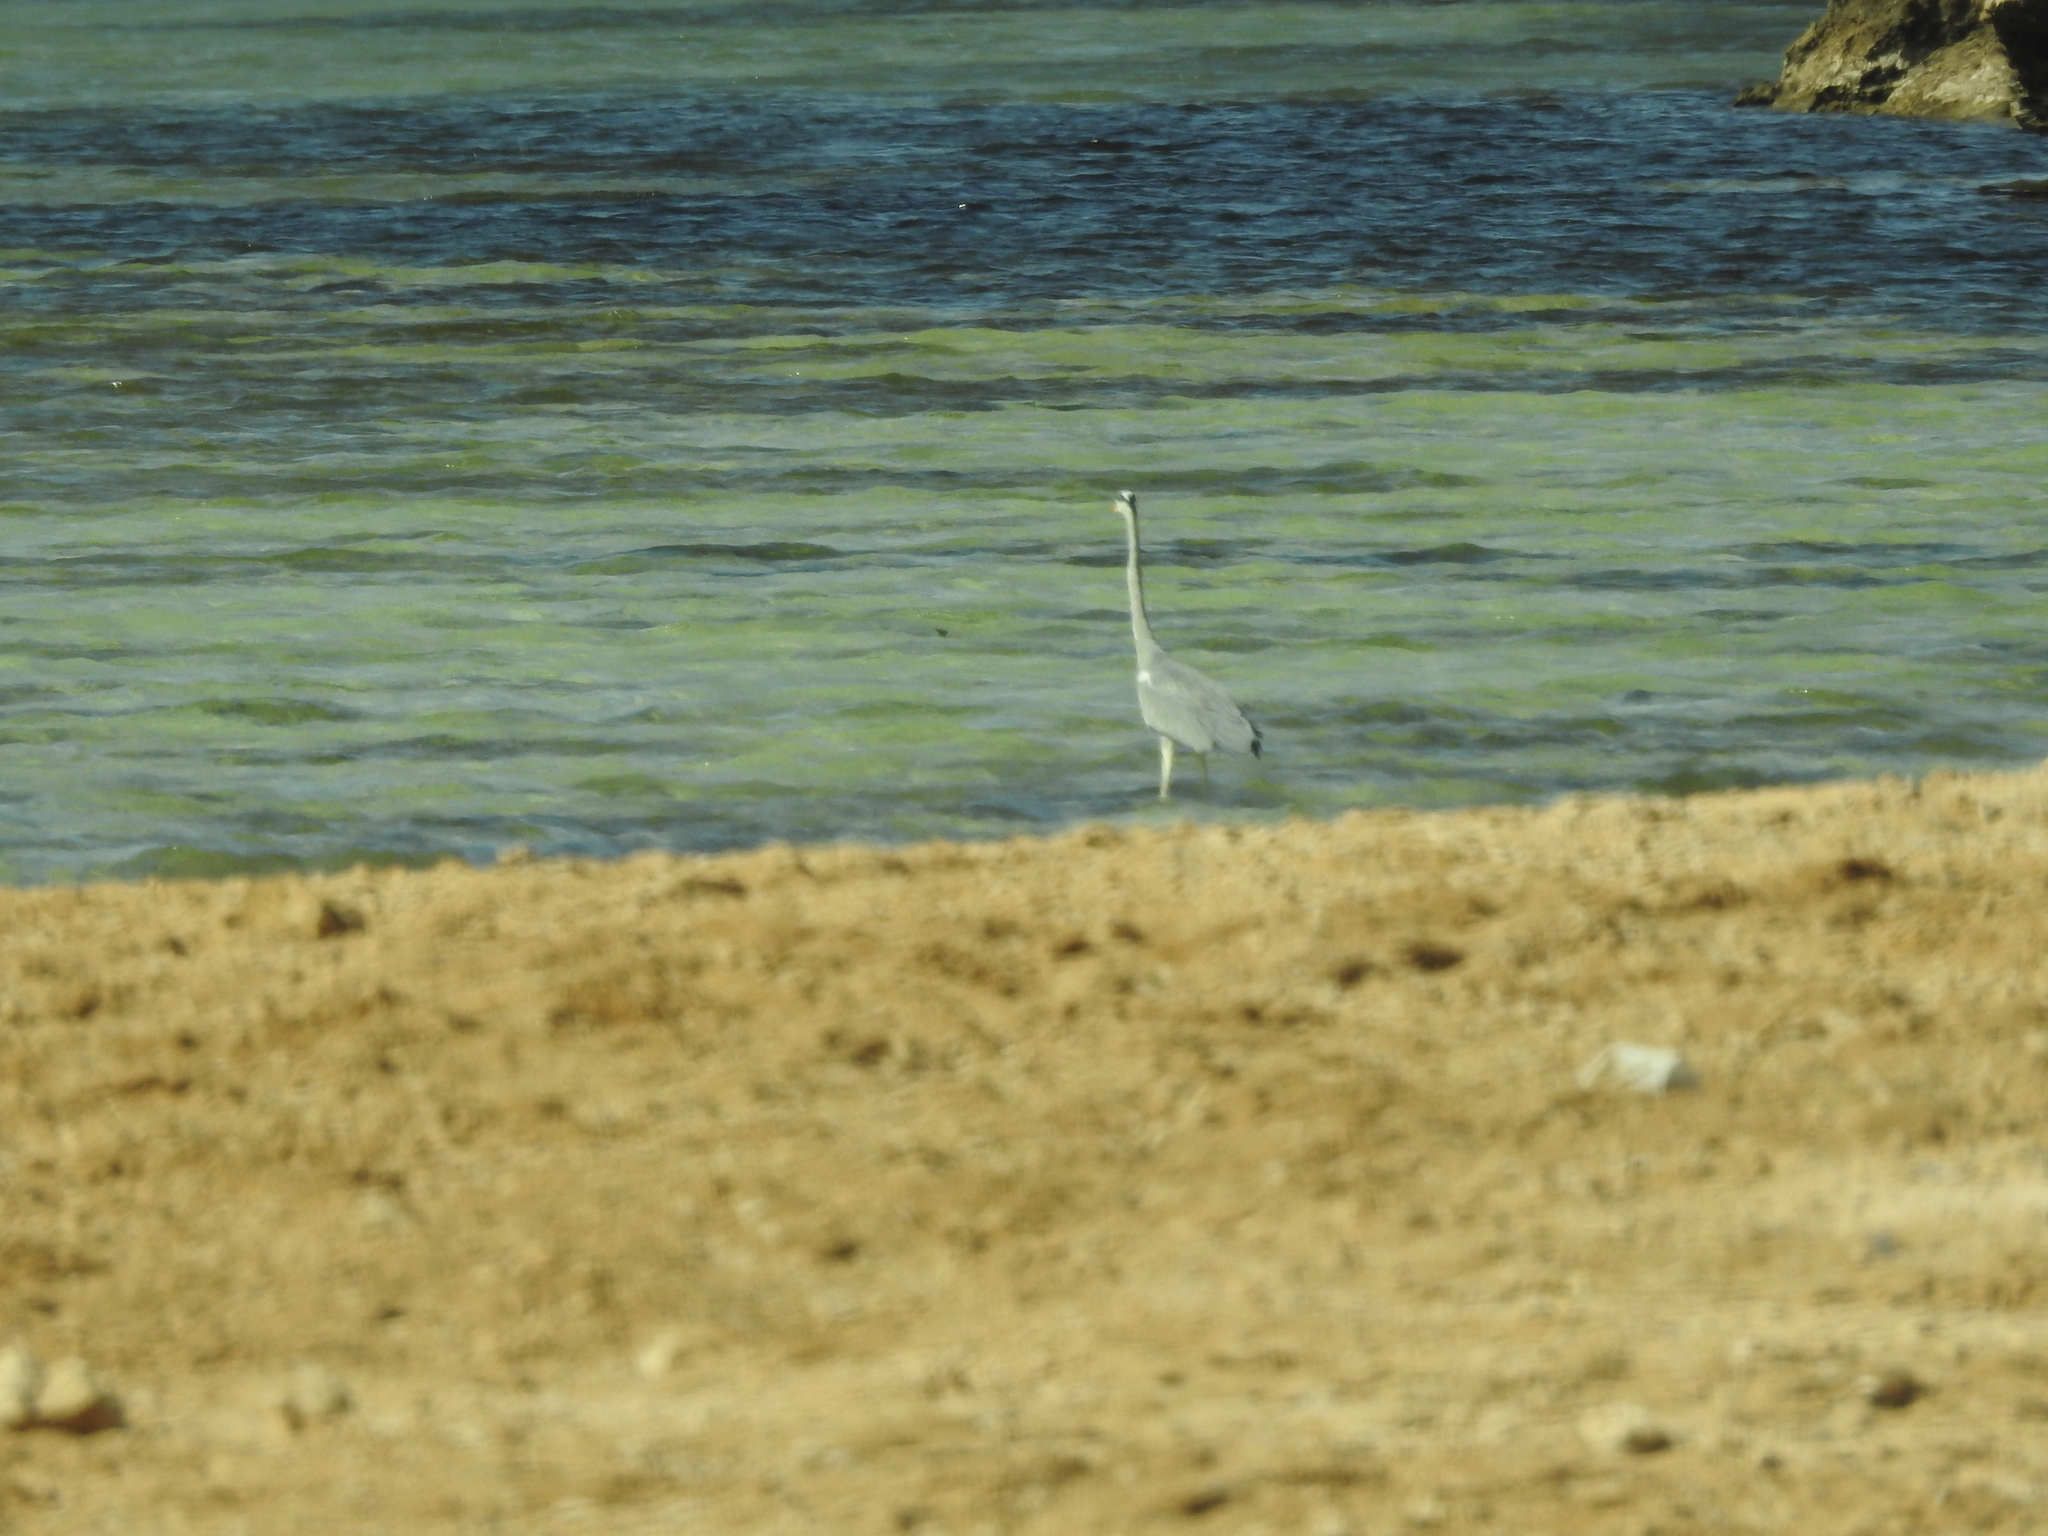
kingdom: Animalia
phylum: Chordata
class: Aves
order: Pelecaniformes
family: Ardeidae
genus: Ardea
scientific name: Ardea cinerea
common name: Grey heron
